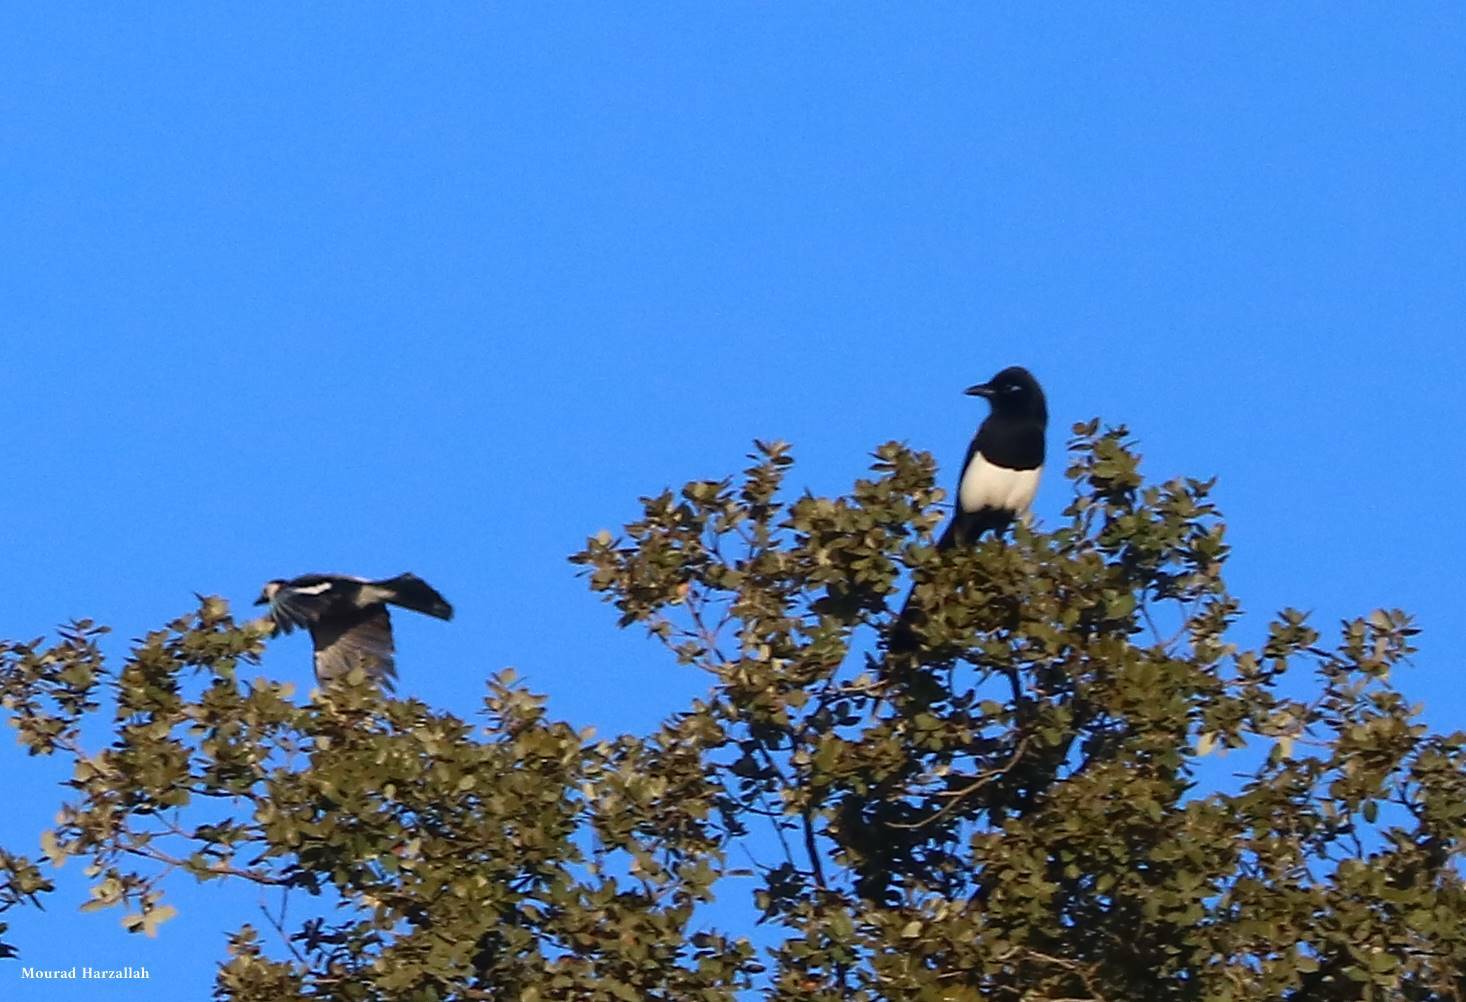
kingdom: Animalia
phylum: Chordata
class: Aves
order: Passeriformes
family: Corvidae
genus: Pica
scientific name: Pica mauritanica
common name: Maghreb magpie
